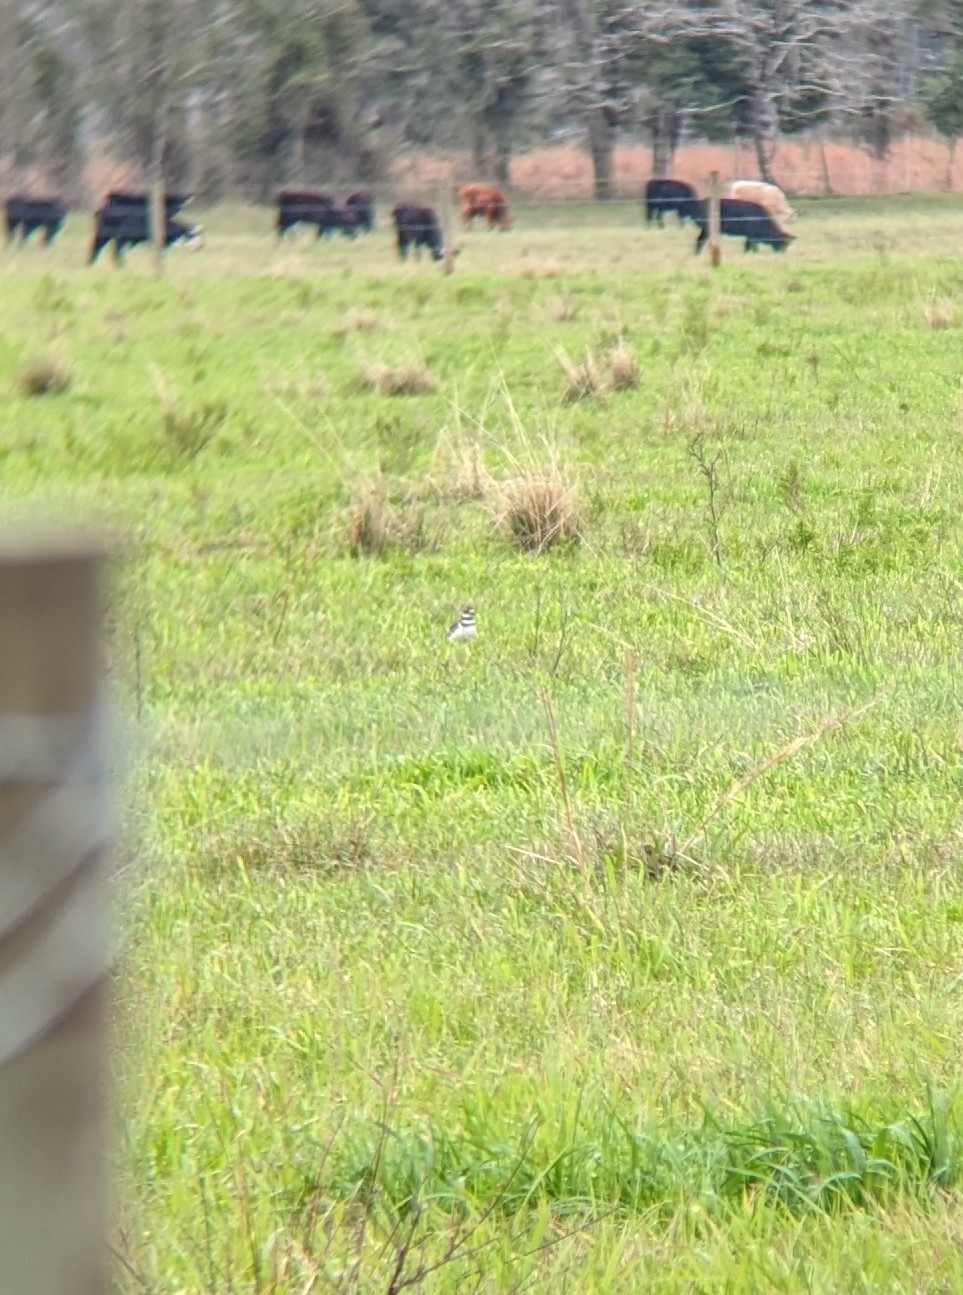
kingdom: Animalia
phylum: Chordata
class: Aves
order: Charadriiformes
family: Charadriidae
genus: Charadrius
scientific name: Charadrius vociferus
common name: Killdeer
